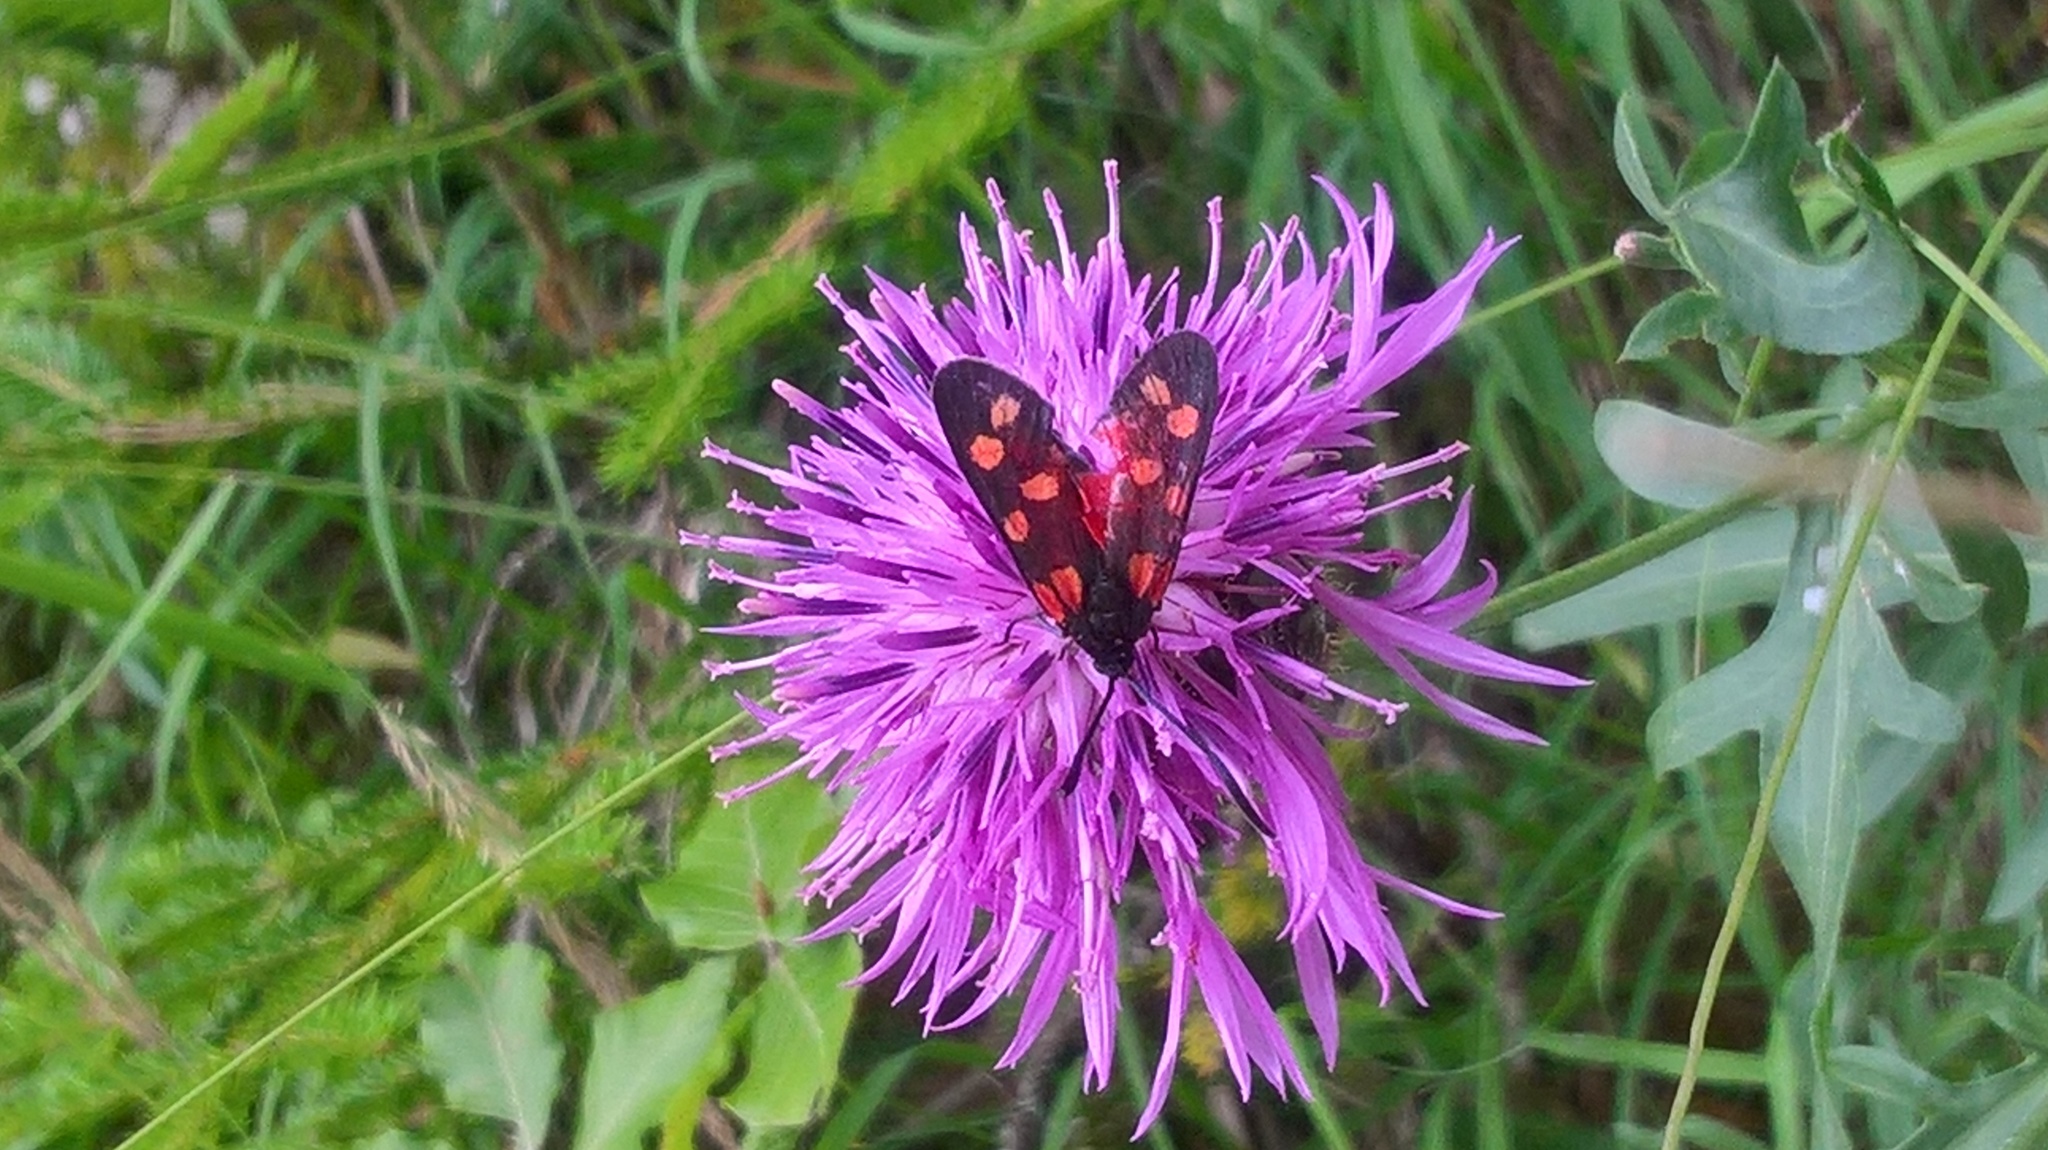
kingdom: Animalia
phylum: Arthropoda
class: Insecta
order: Lepidoptera
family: Zygaenidae
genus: Zygaena
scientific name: Zygaena transalpina
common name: Southern six spot burnet
